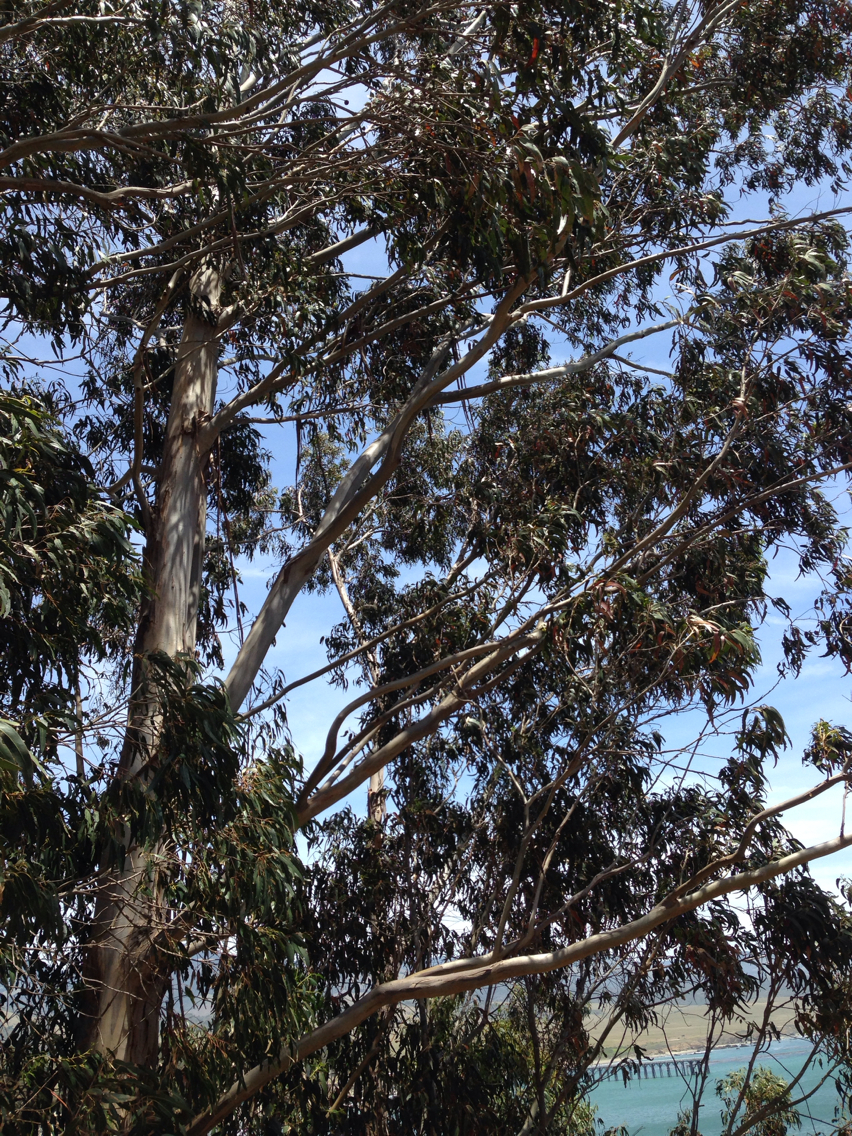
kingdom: Plantae
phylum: Tracheophyta
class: Magnoliopsida
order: Myrtales
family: Myrtaceae
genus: Eucalyptus
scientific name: Eucalyptus globulus
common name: Southern blue-gum
